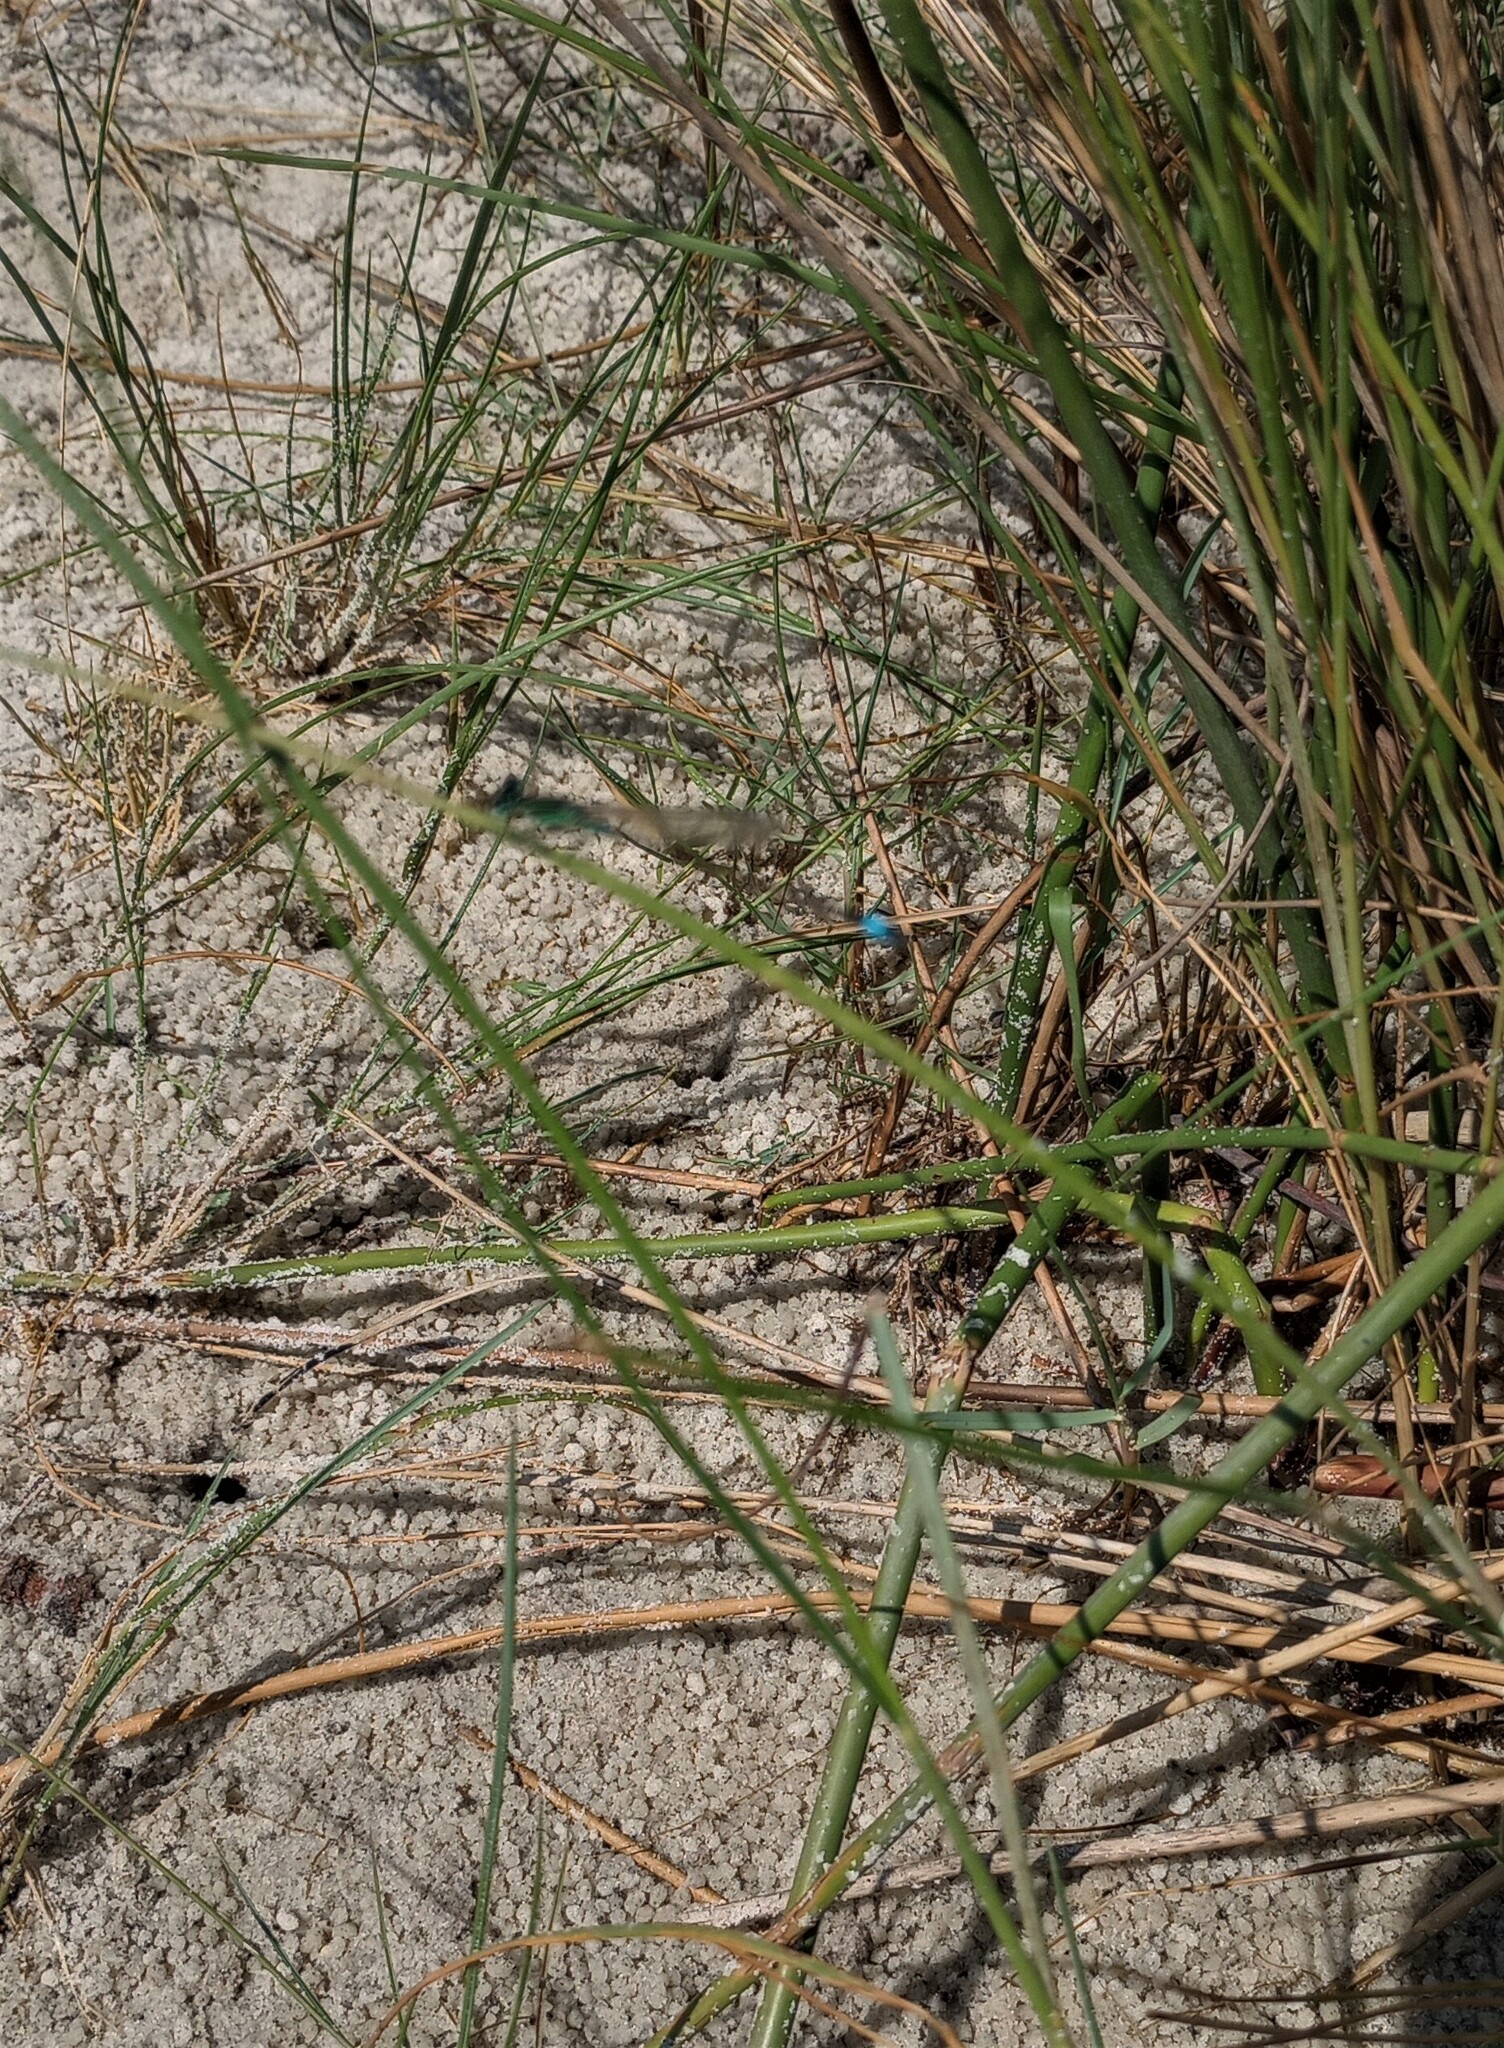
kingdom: Animalia
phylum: Arthropoda
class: Insecta
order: Odonata
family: Coenagrionidae
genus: Ischnura
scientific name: Ischnura ramburii
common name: Rambur's forktail
